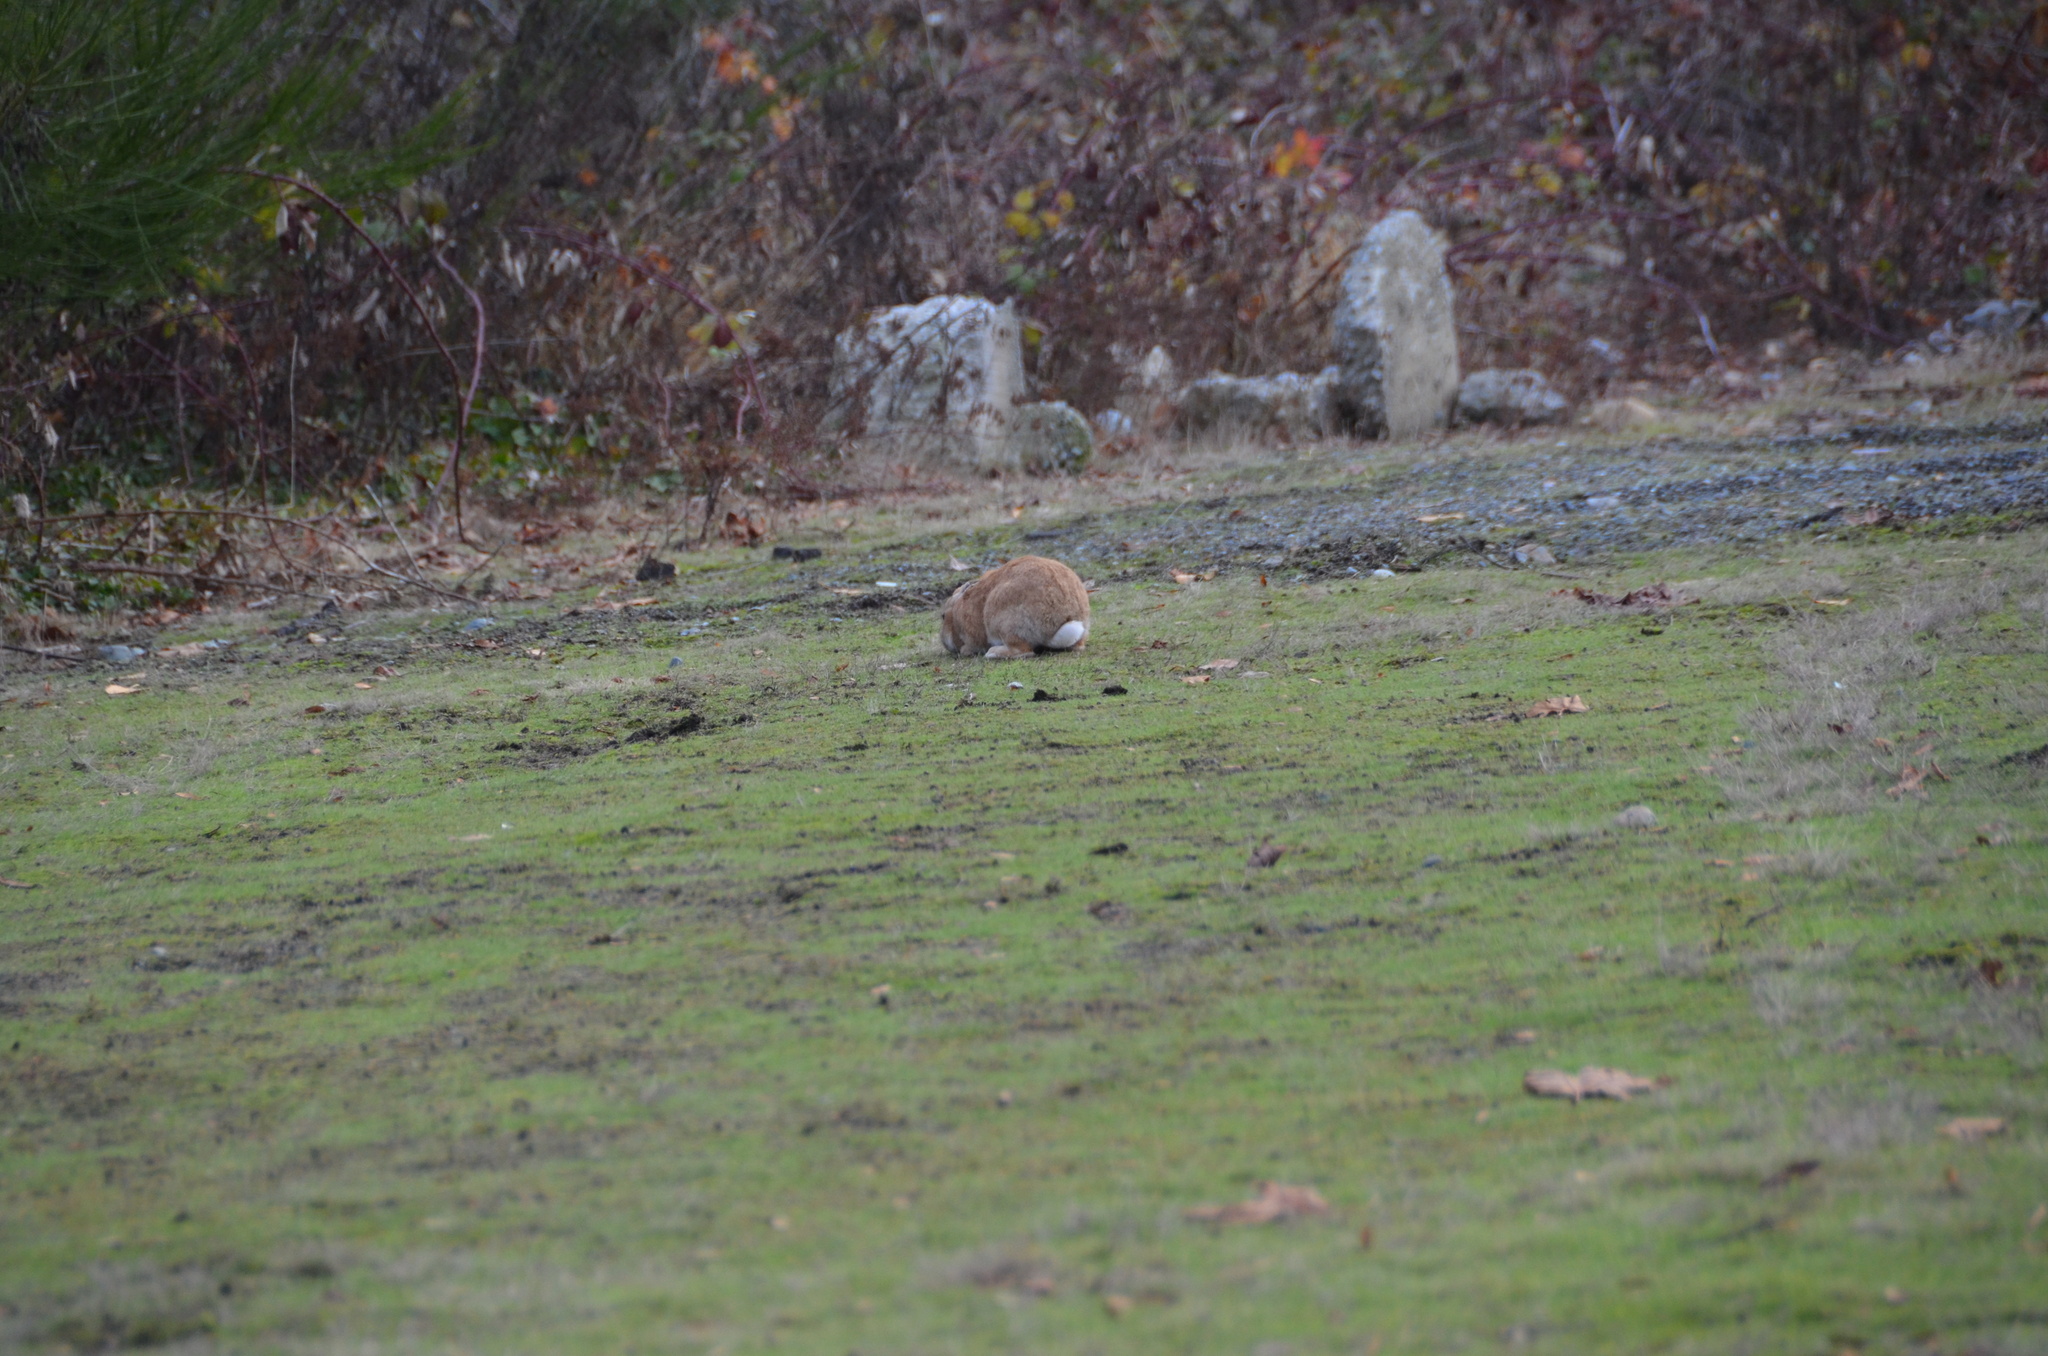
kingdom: Animalia
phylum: Chordata
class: Mammalia
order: Lagomorpha
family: Leporidae
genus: Oryctolagus
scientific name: Oryctolagus cuniculus
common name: European rabbit
